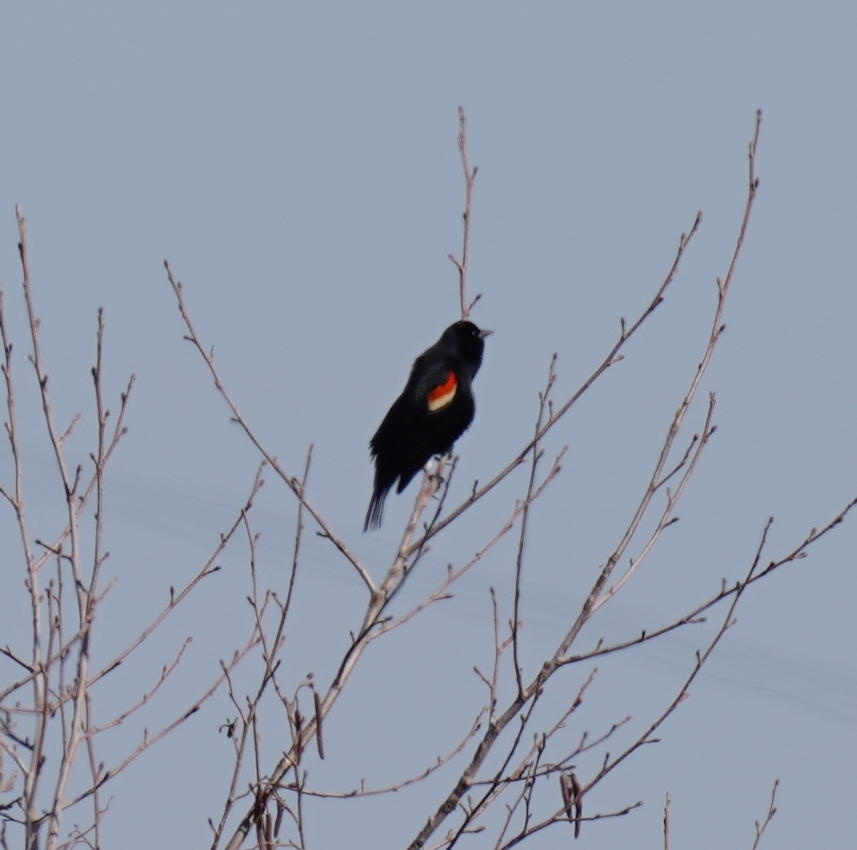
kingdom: Animalia
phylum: Chordata
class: Aves
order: Passeriformes
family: Icteridae
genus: Agelaius
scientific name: Agelaius phoeniceus
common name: Red-winged blackbird
